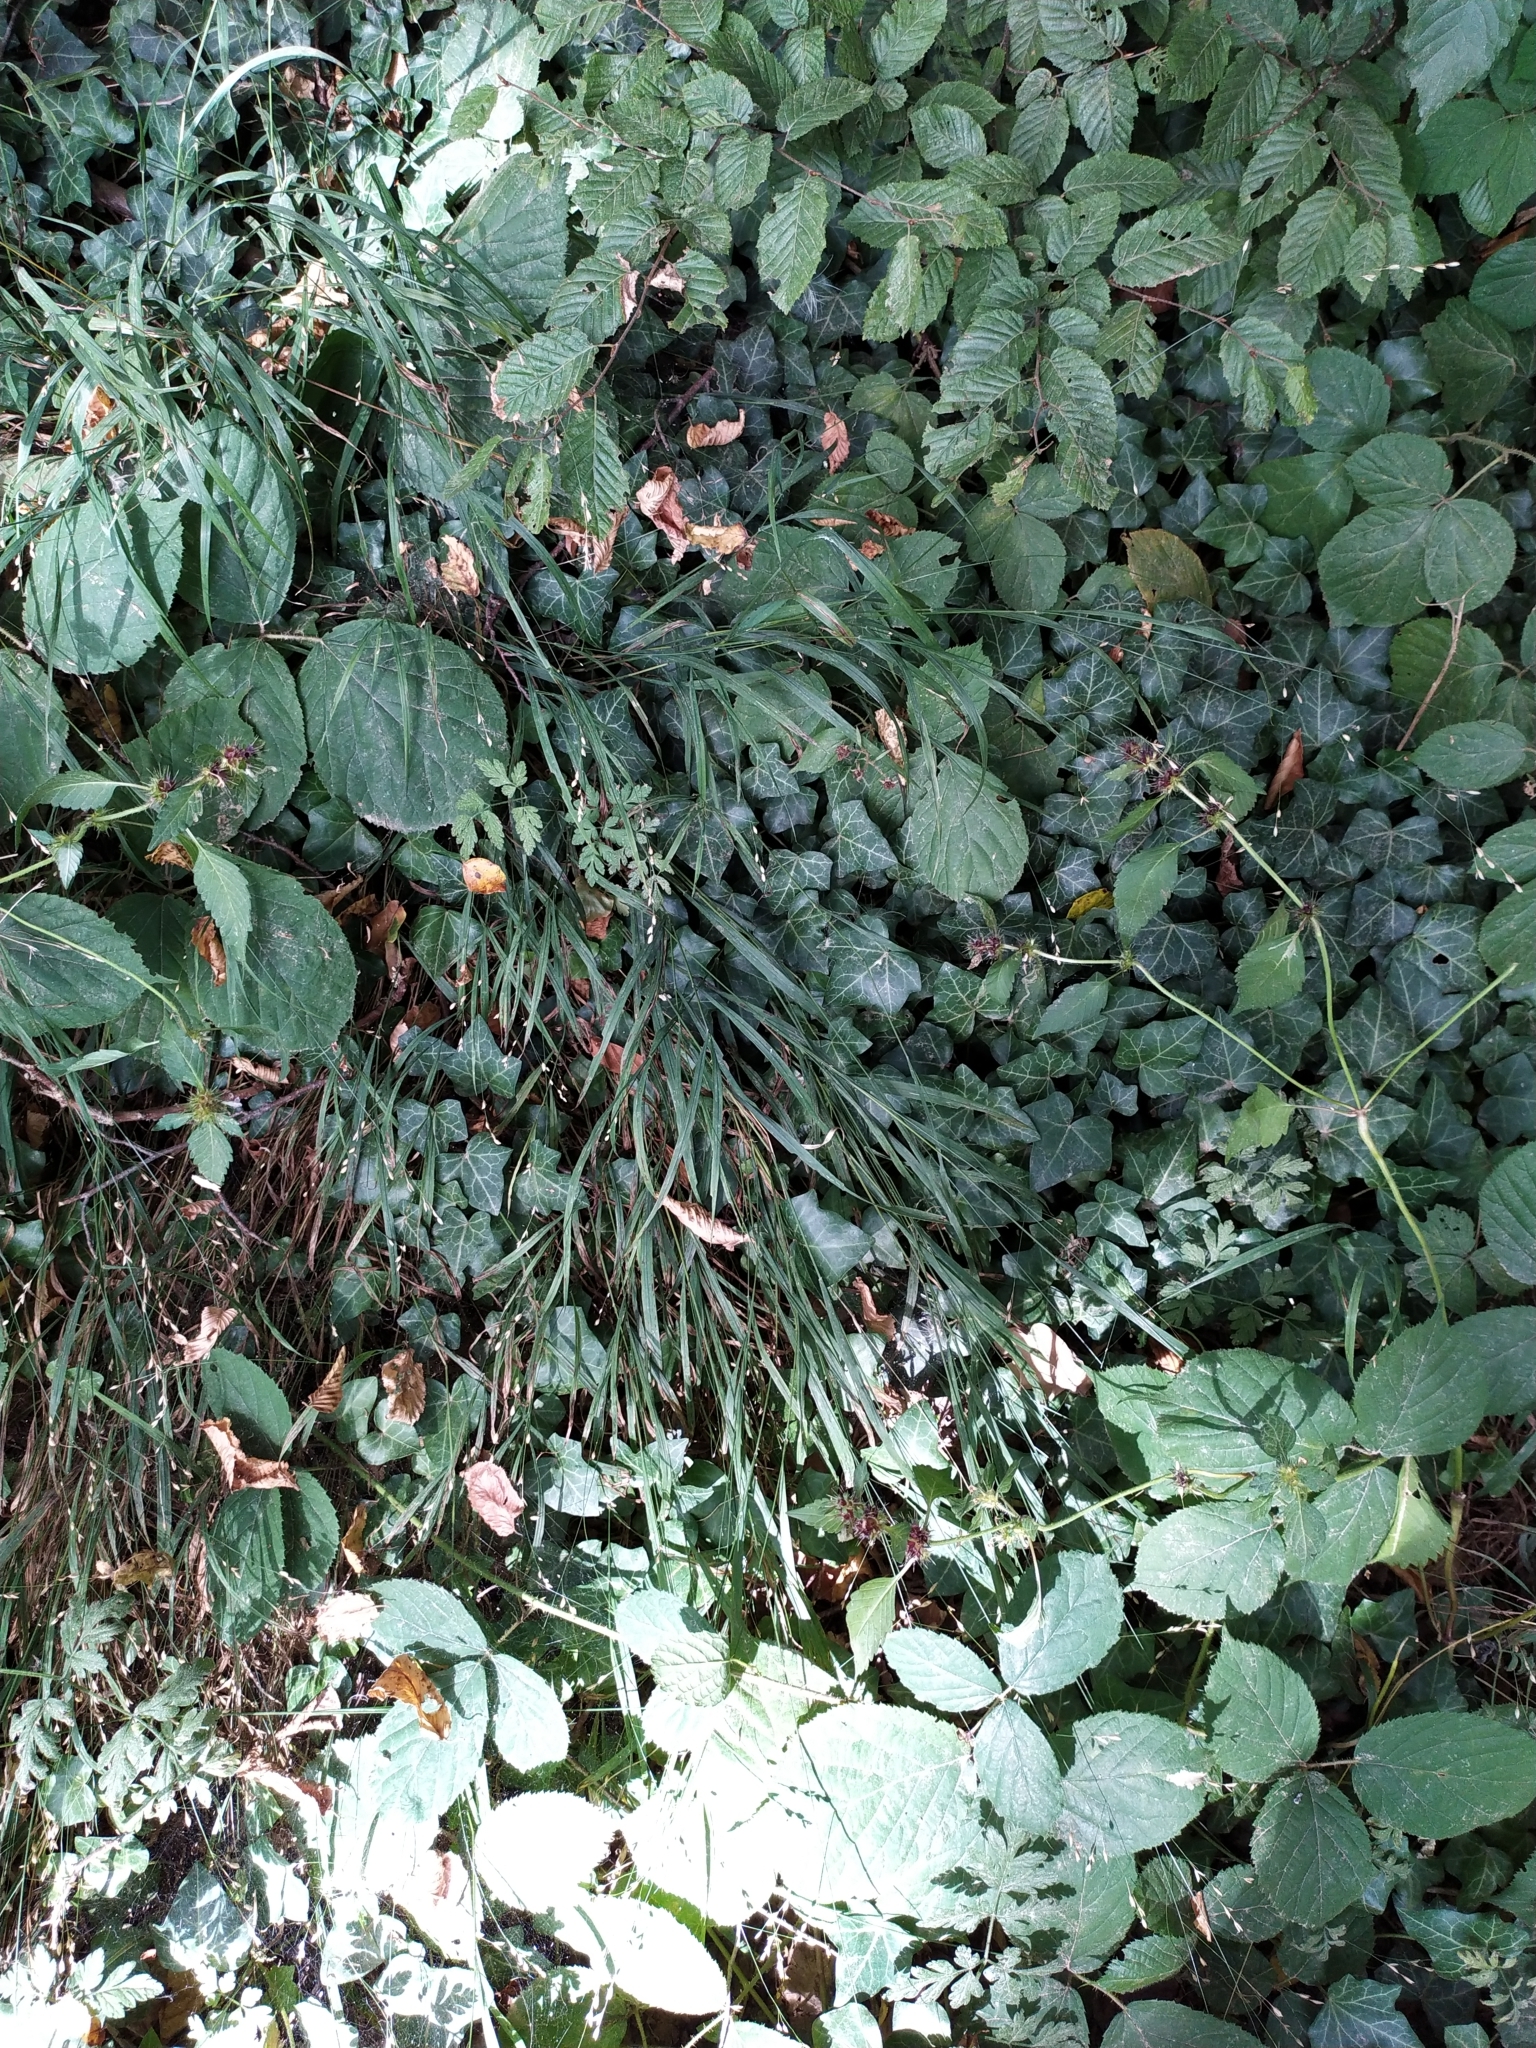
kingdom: Plantae
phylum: Tracheophyta
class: Liliopsida
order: Poales
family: Poaceae
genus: Melica
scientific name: Melica uniflora
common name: Wood melick
